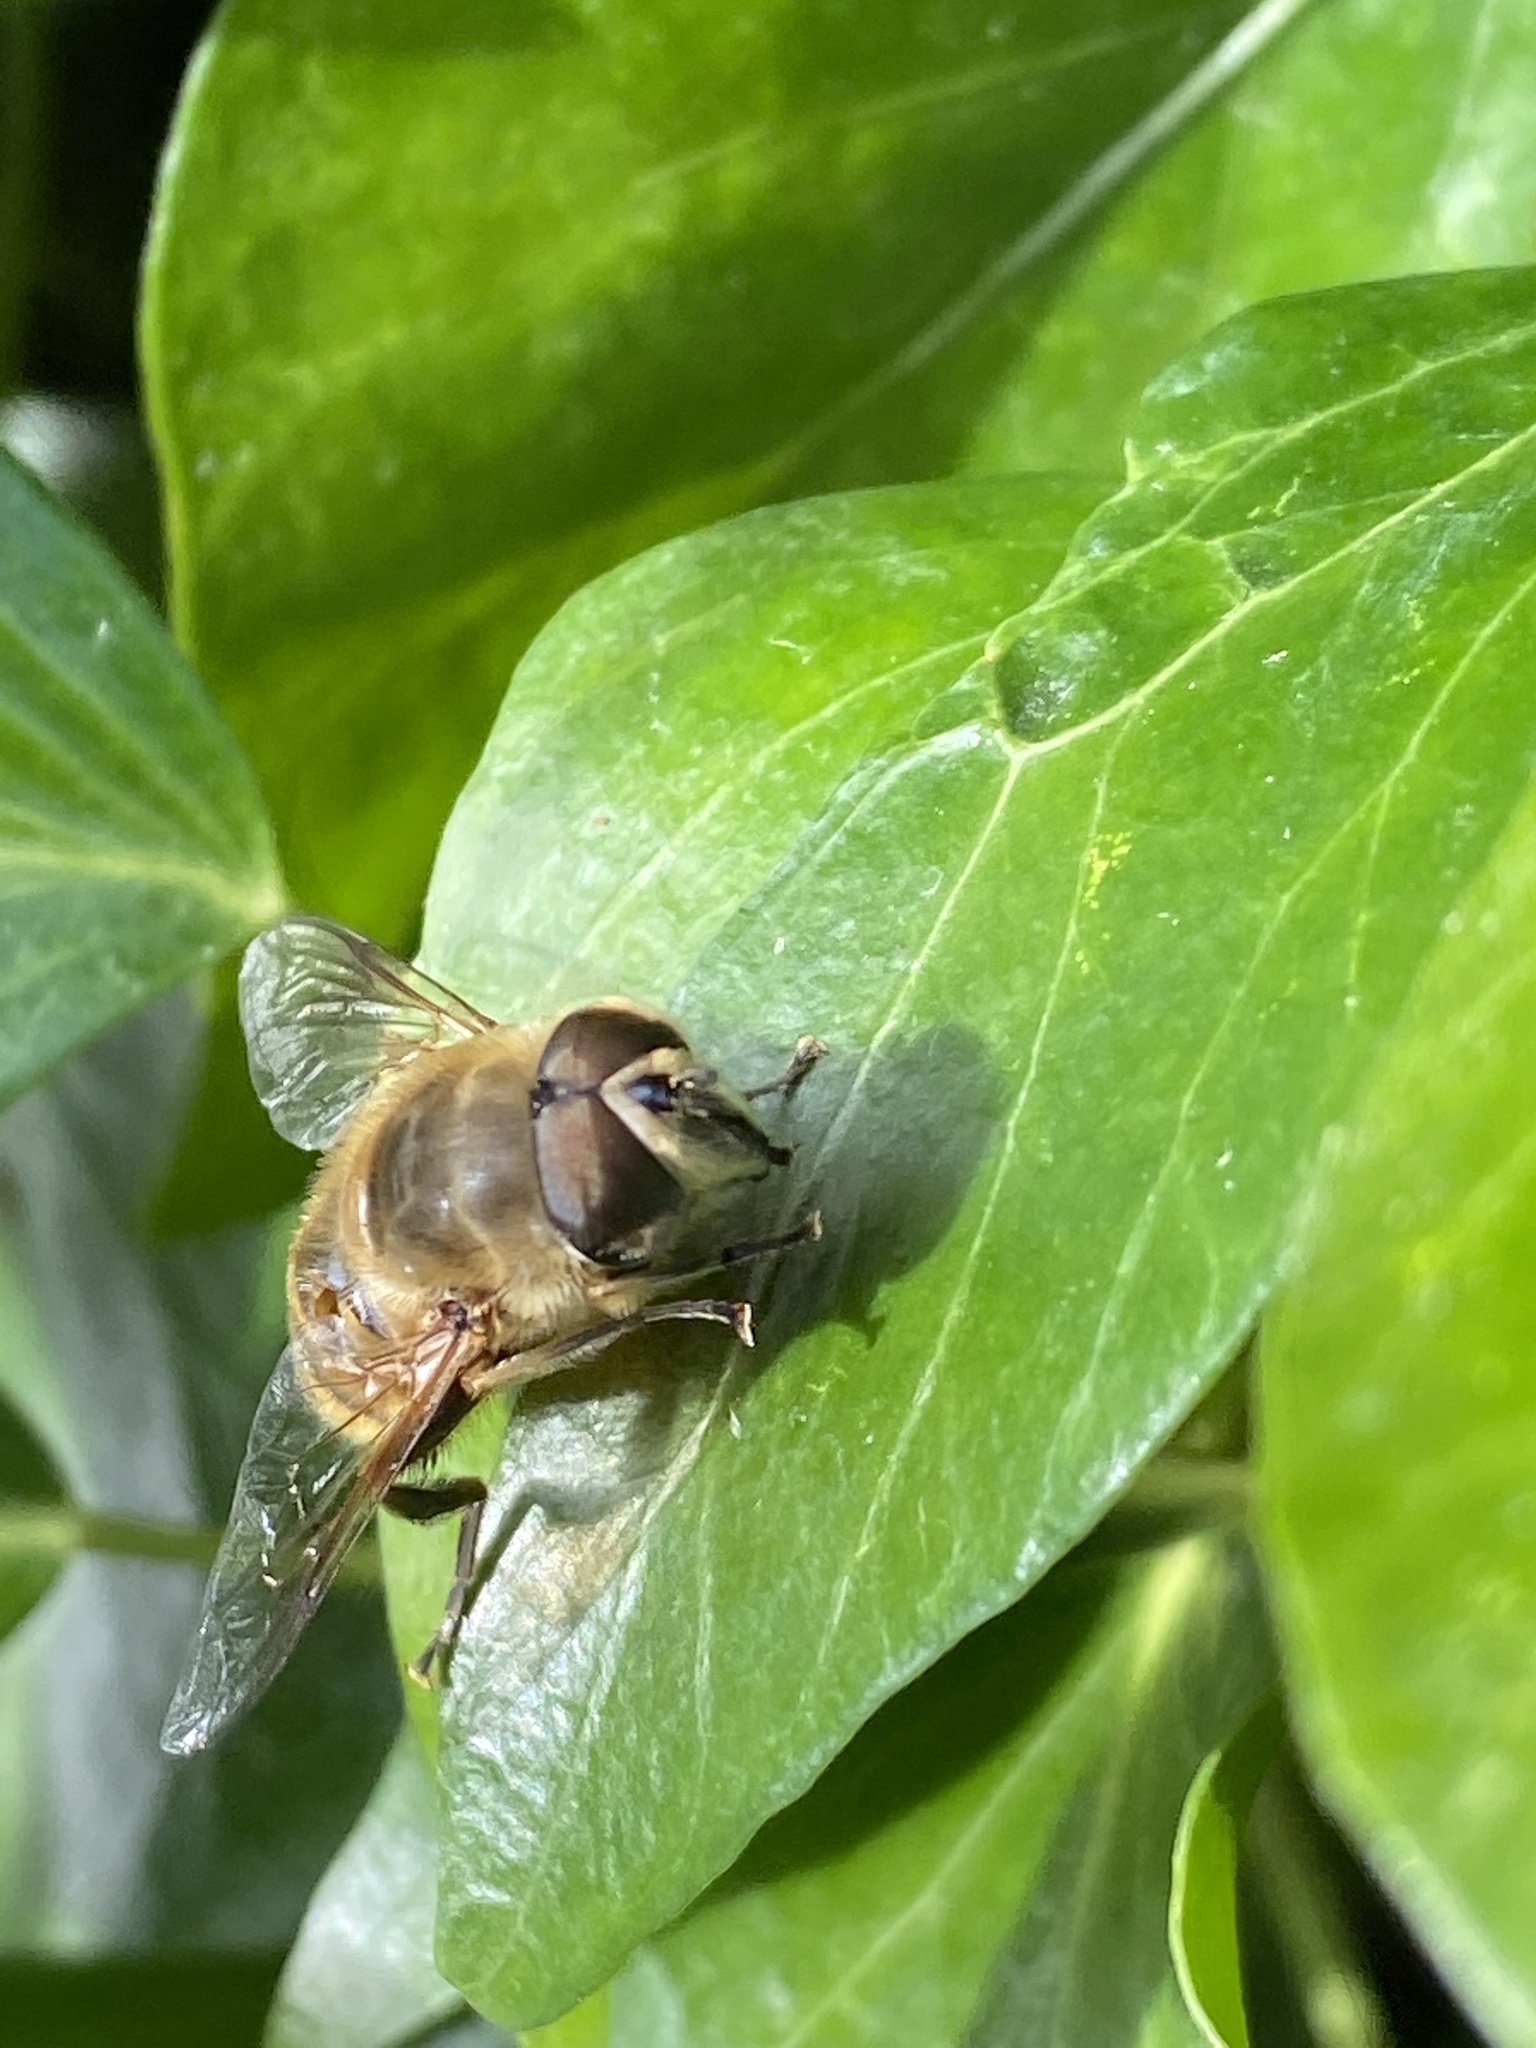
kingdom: Animalia
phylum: Arthropoda
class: Insecta
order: Diptera
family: Syrphidae
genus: Eristalis
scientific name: Eristalis tenax
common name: Drone fly
